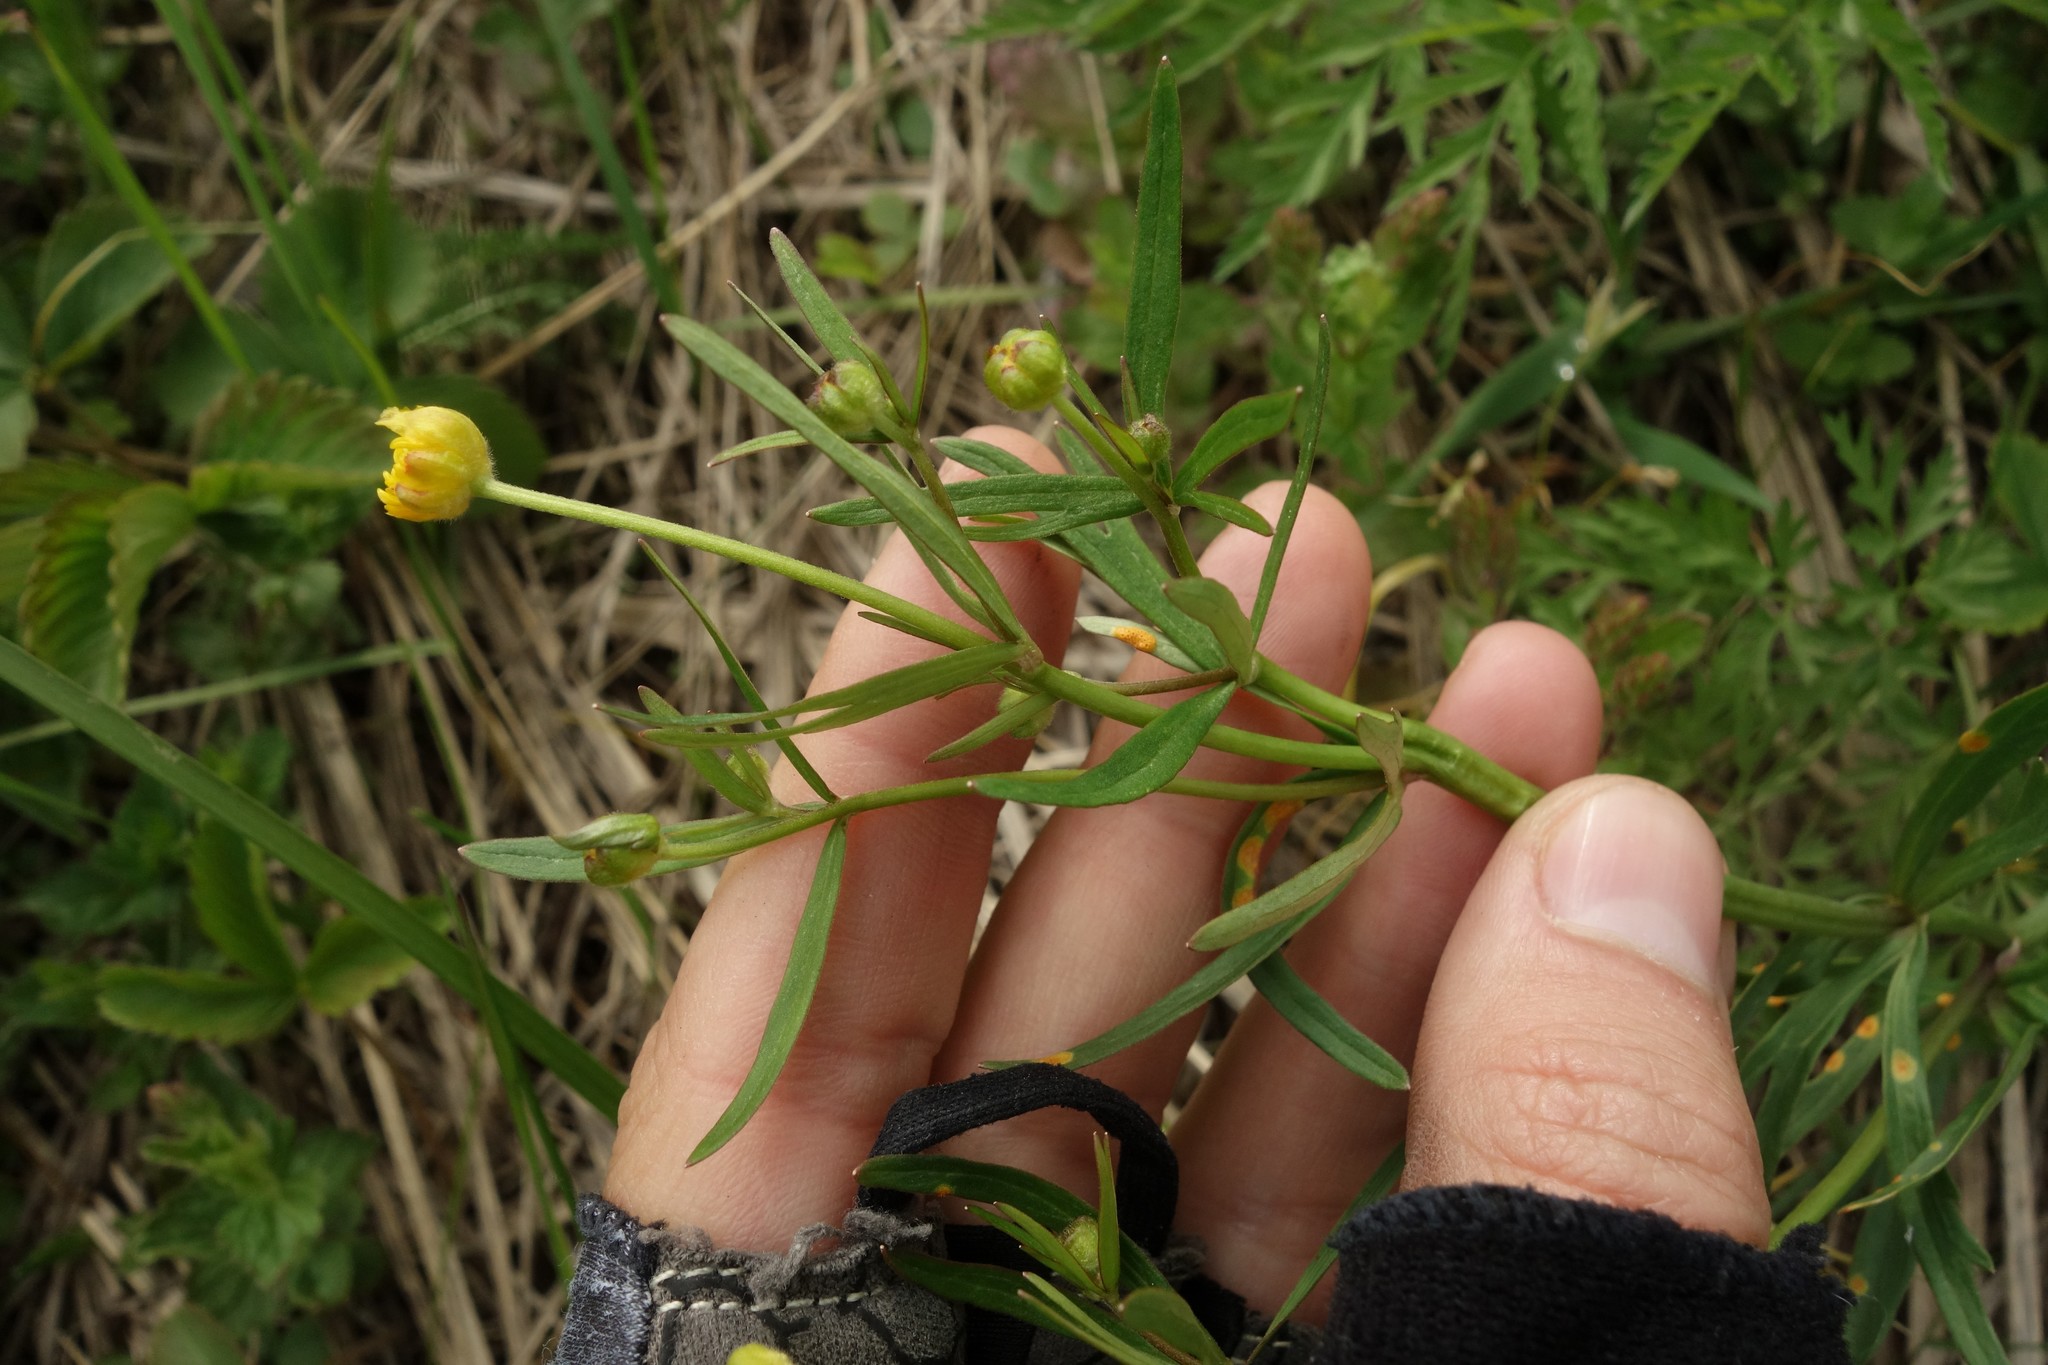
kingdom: Plantae
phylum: Tracheophyta
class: Magnoliopsida
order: Ranunculales
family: Ranunculaceae
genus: Ranunculus
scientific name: Ranunculus auricomus
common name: Goldilocks buttercup
